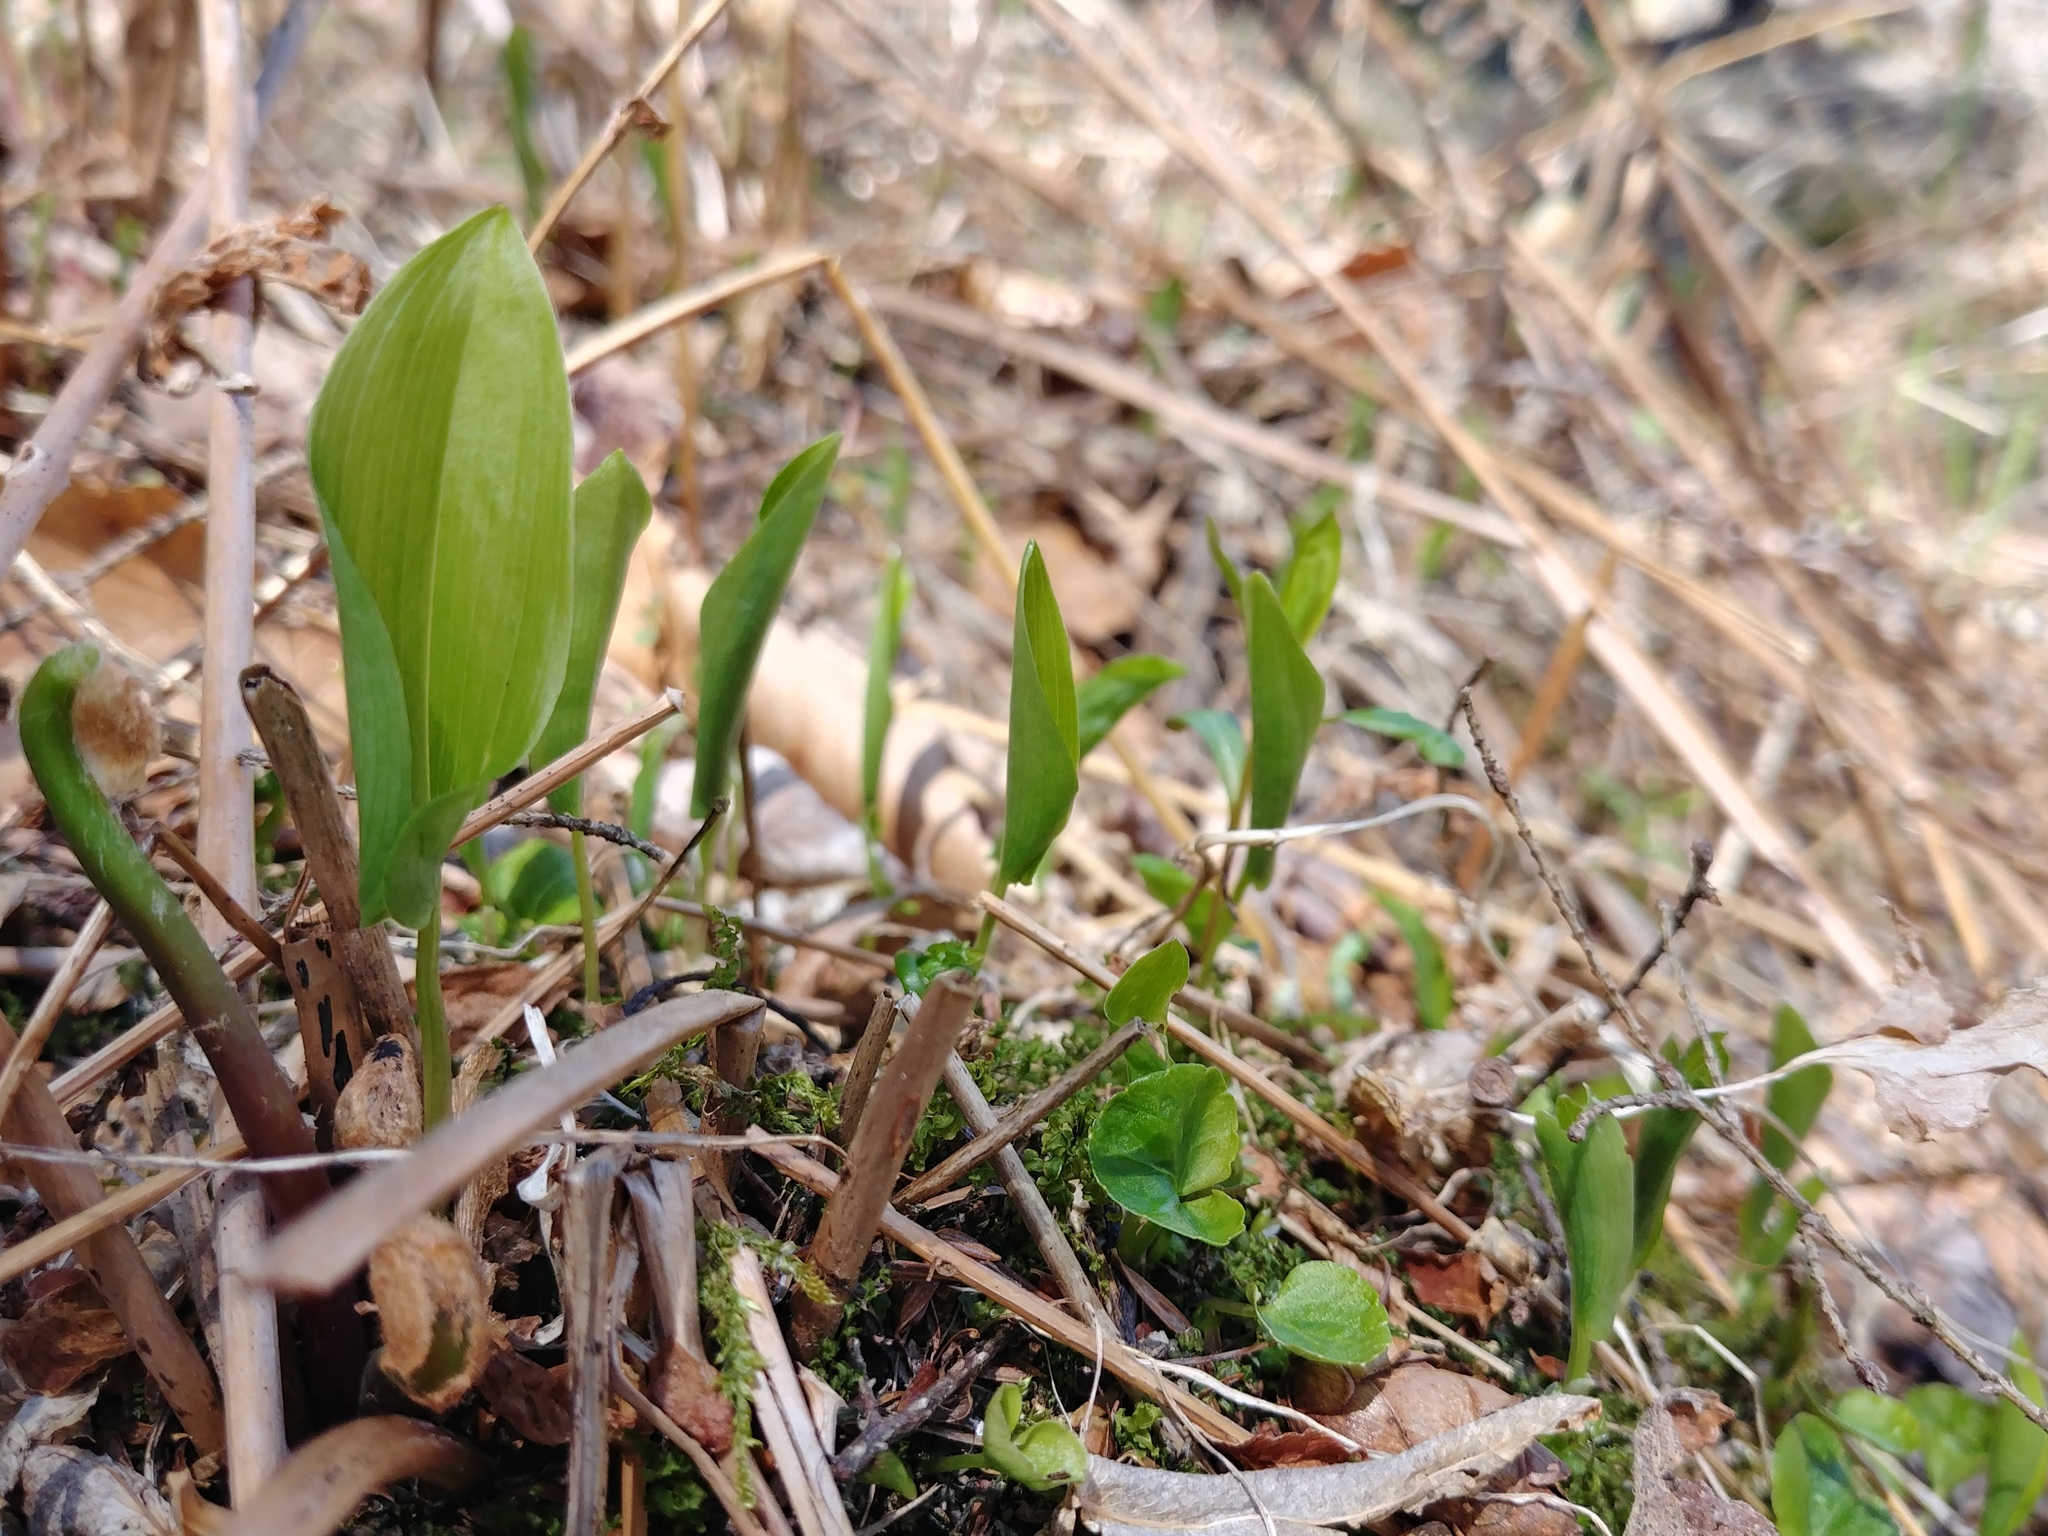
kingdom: Plantae
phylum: Tracheophyta
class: Liliopsida
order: Asparagales
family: Asparagaceae
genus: Maianthemum
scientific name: Maianthemum canadense
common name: False lily-of-the-valley
